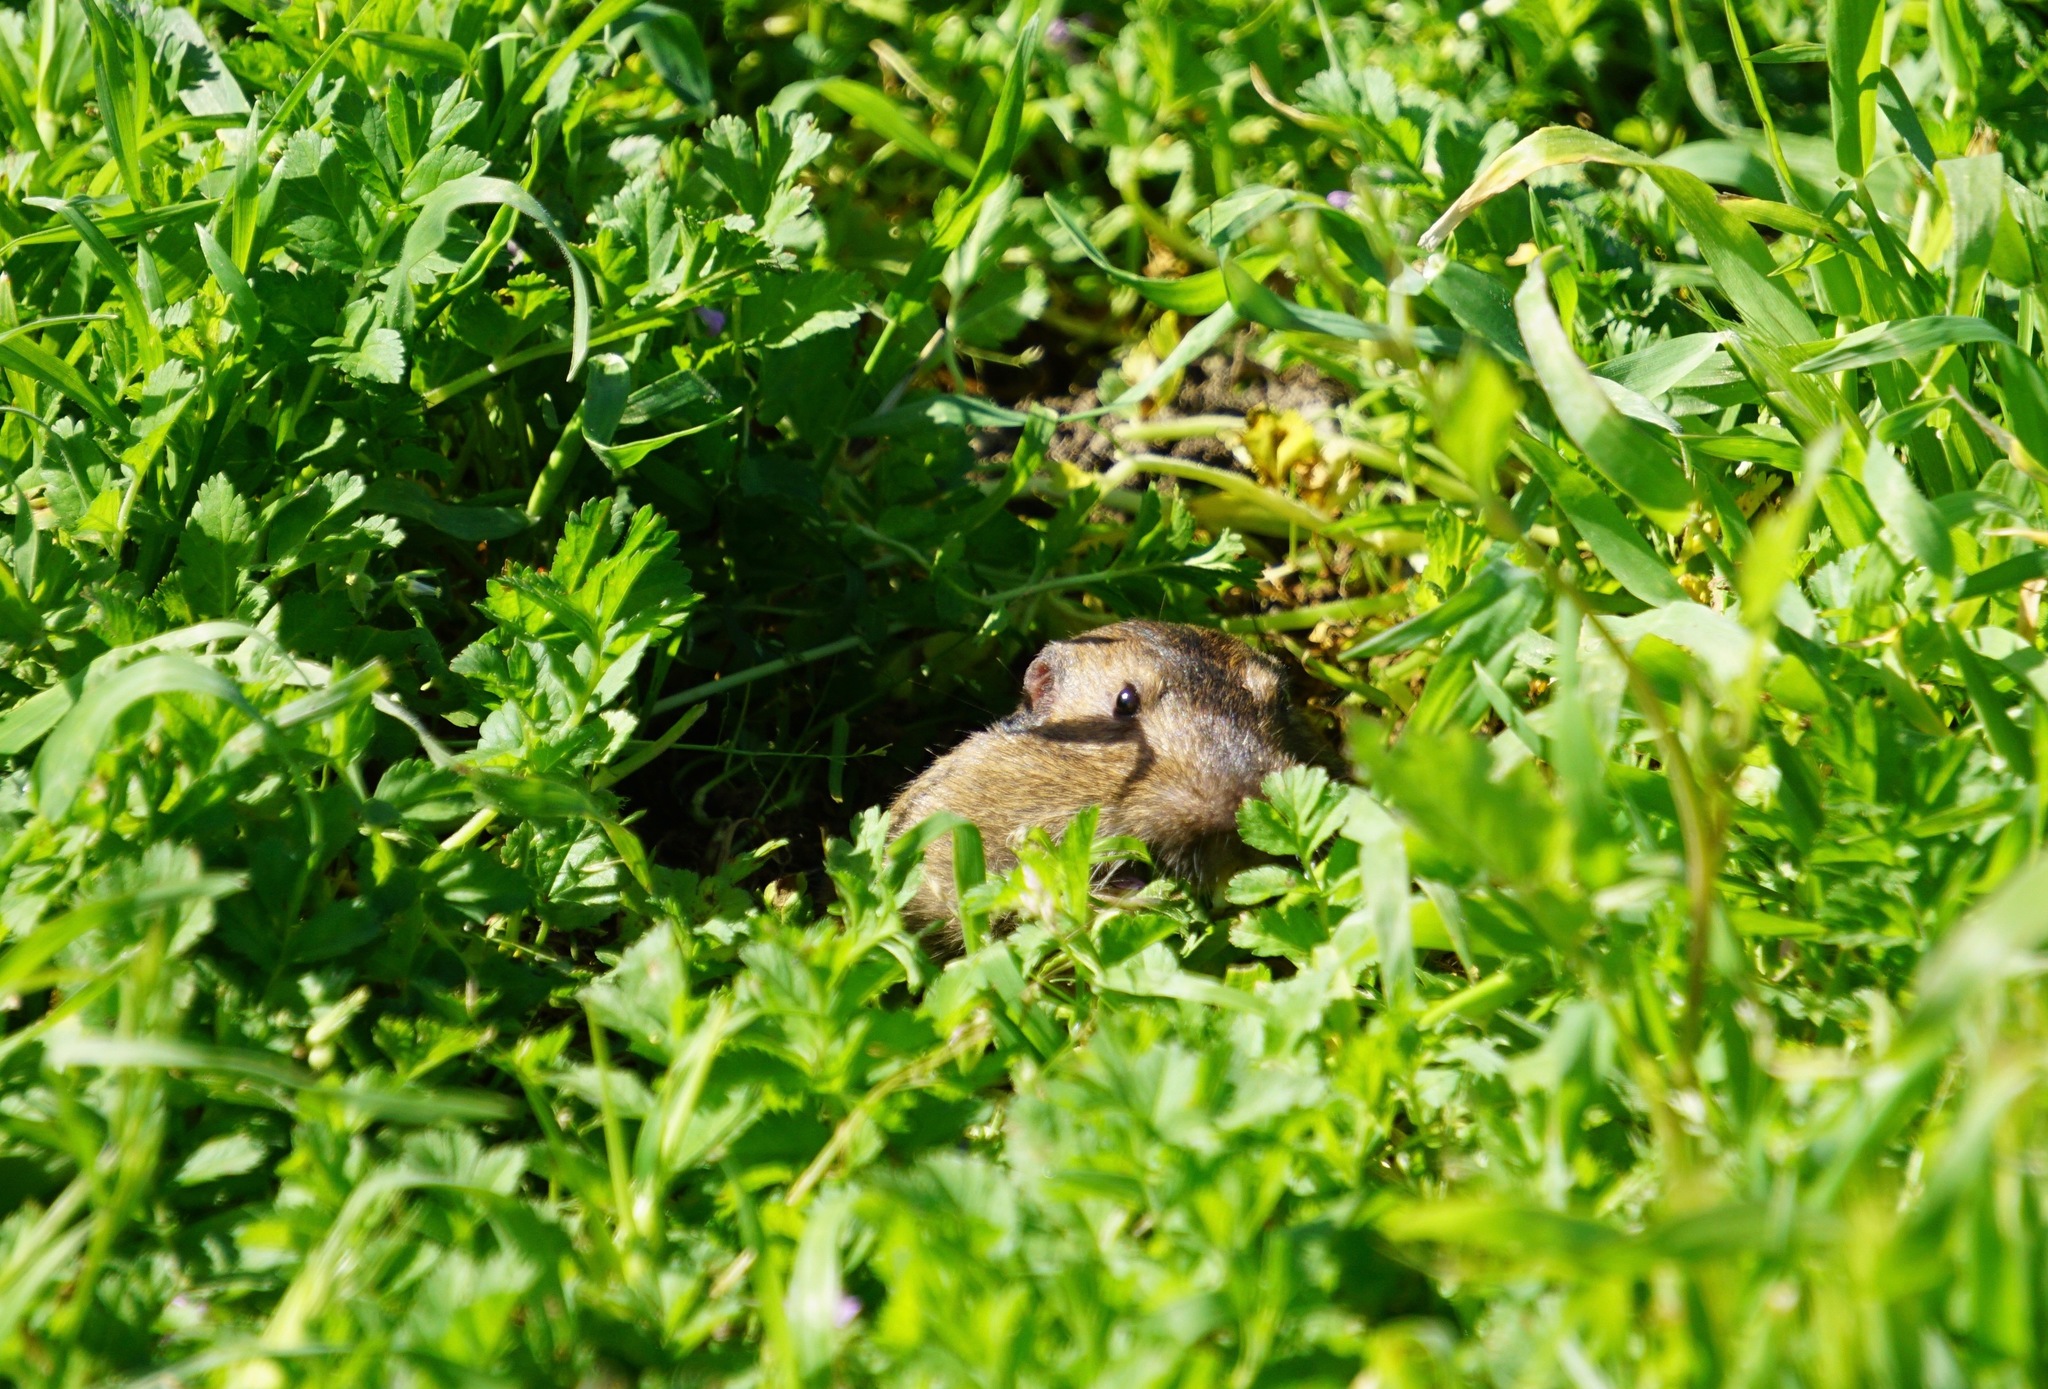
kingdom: Animalia
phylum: Chordata
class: Mammalia
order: Rodentia
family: Geomyidae
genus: Thomomys
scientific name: Thomomys bottae
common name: Botta's pocket gopher
